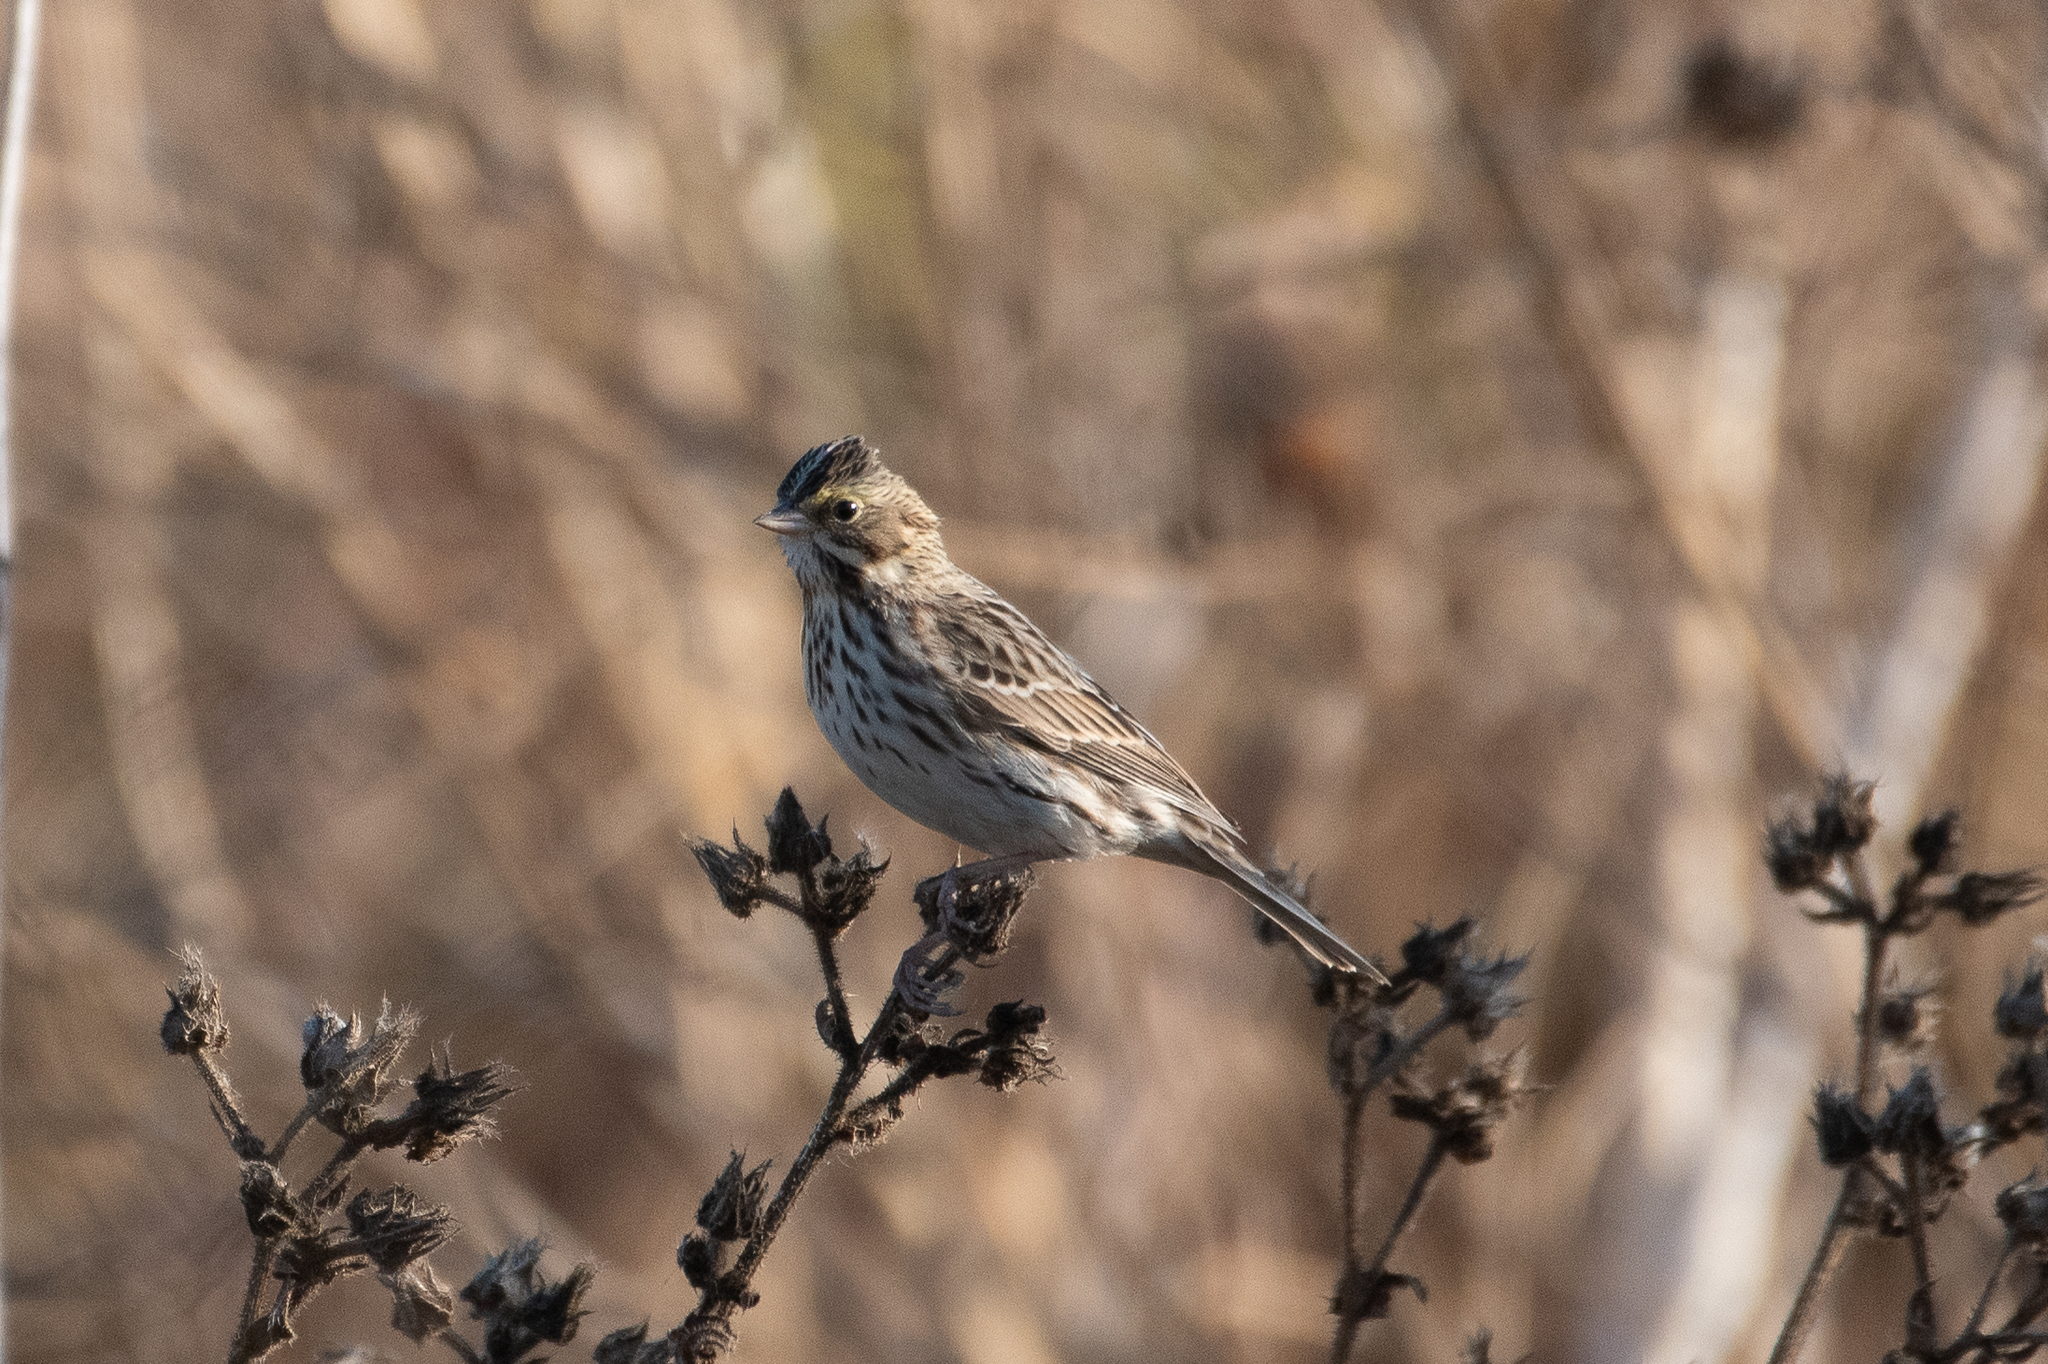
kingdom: Animalia
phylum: Chordata
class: Aves
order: Passeriformes
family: Passerellidae
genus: Passerculus
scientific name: Passerculus sandwichensis
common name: Savannah sparrow
